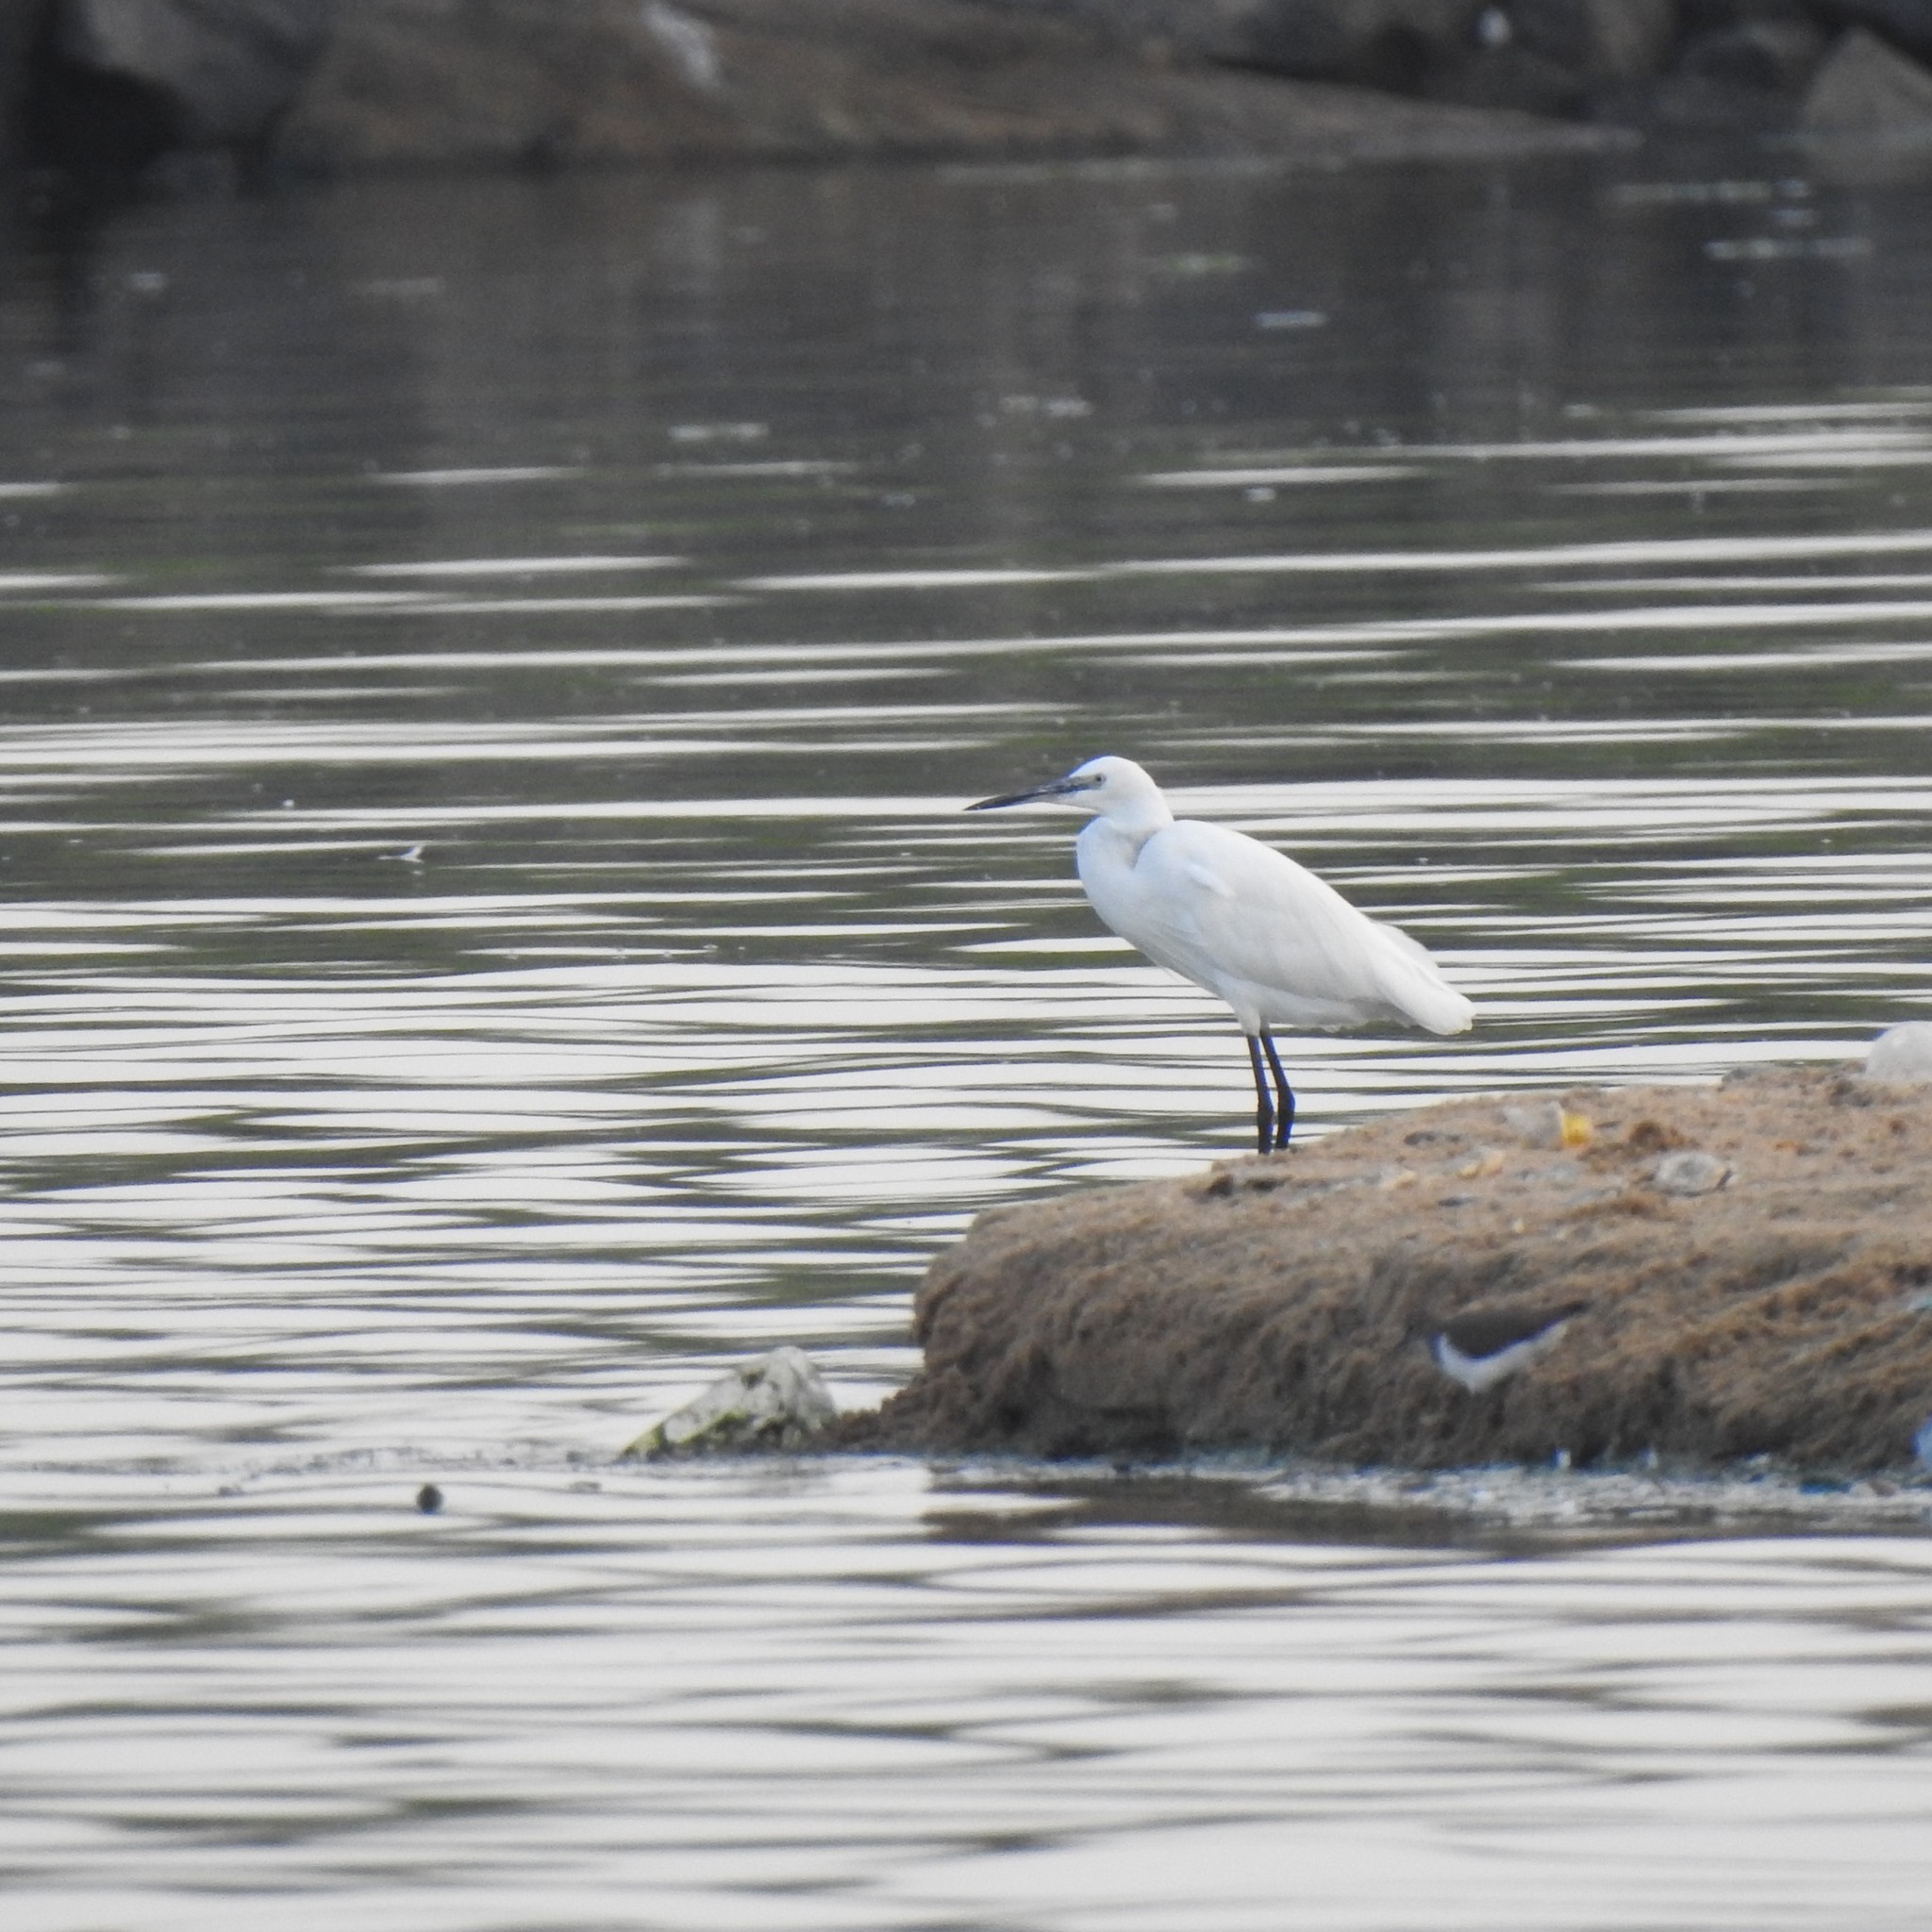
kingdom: Animalia
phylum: Chordata
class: Aves
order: Pelecaniformes
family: Ardeidae
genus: Egretta
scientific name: Egretta garzetta
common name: Little egret
